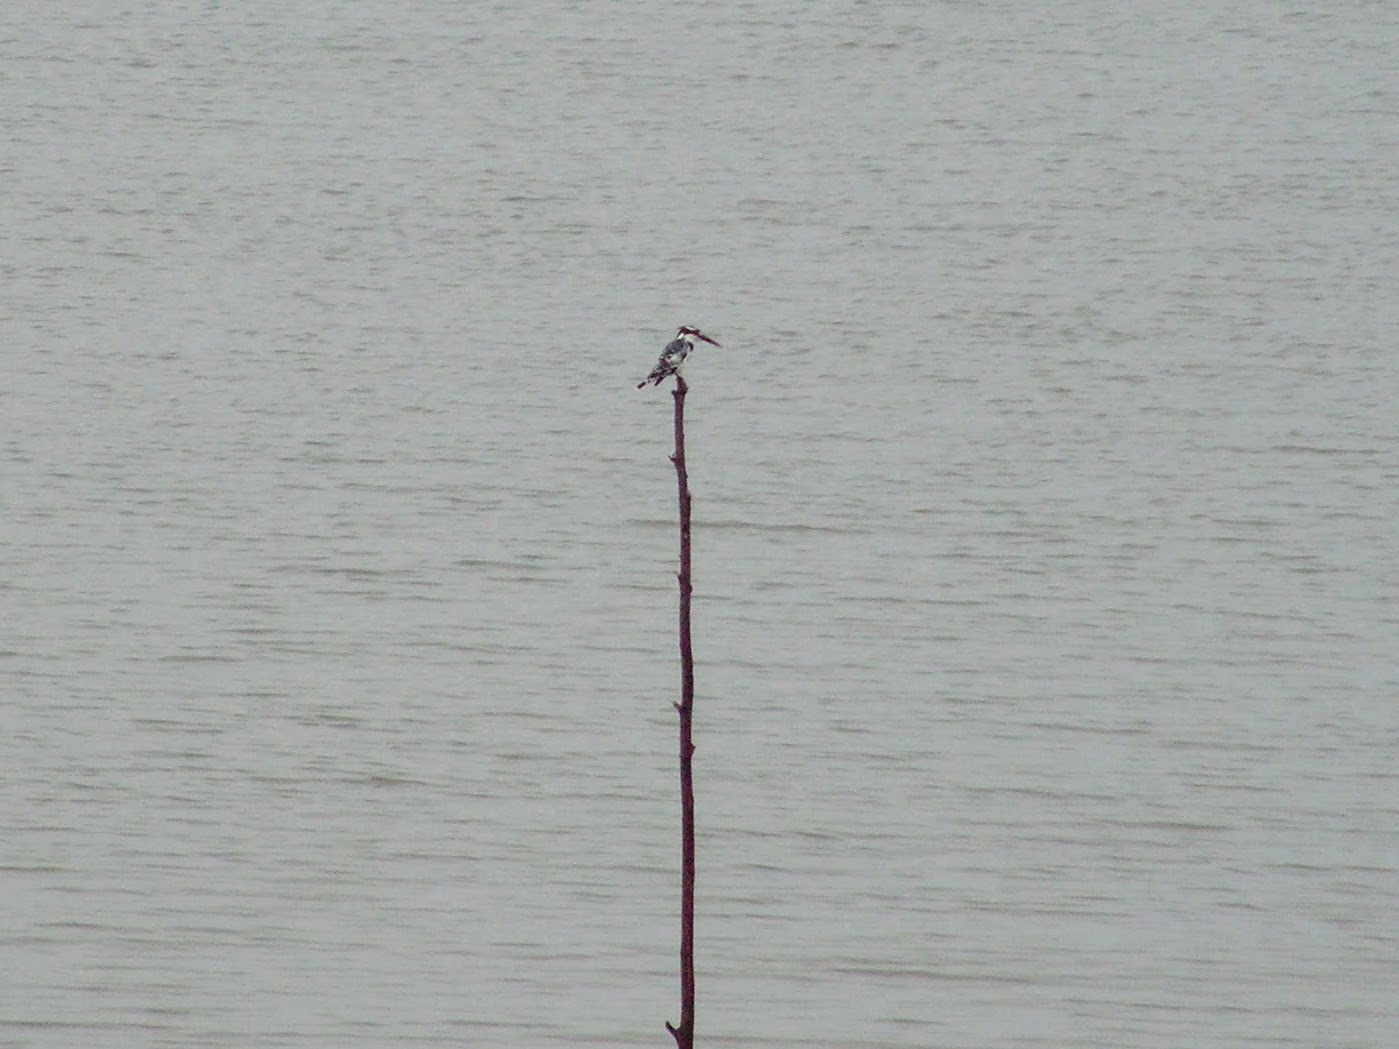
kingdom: Animalia
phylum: Chordata
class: Aves
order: Coraciiformes
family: Alcedinidae
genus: Ceryle
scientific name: Ceryle rudis
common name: Pied kingfisher
